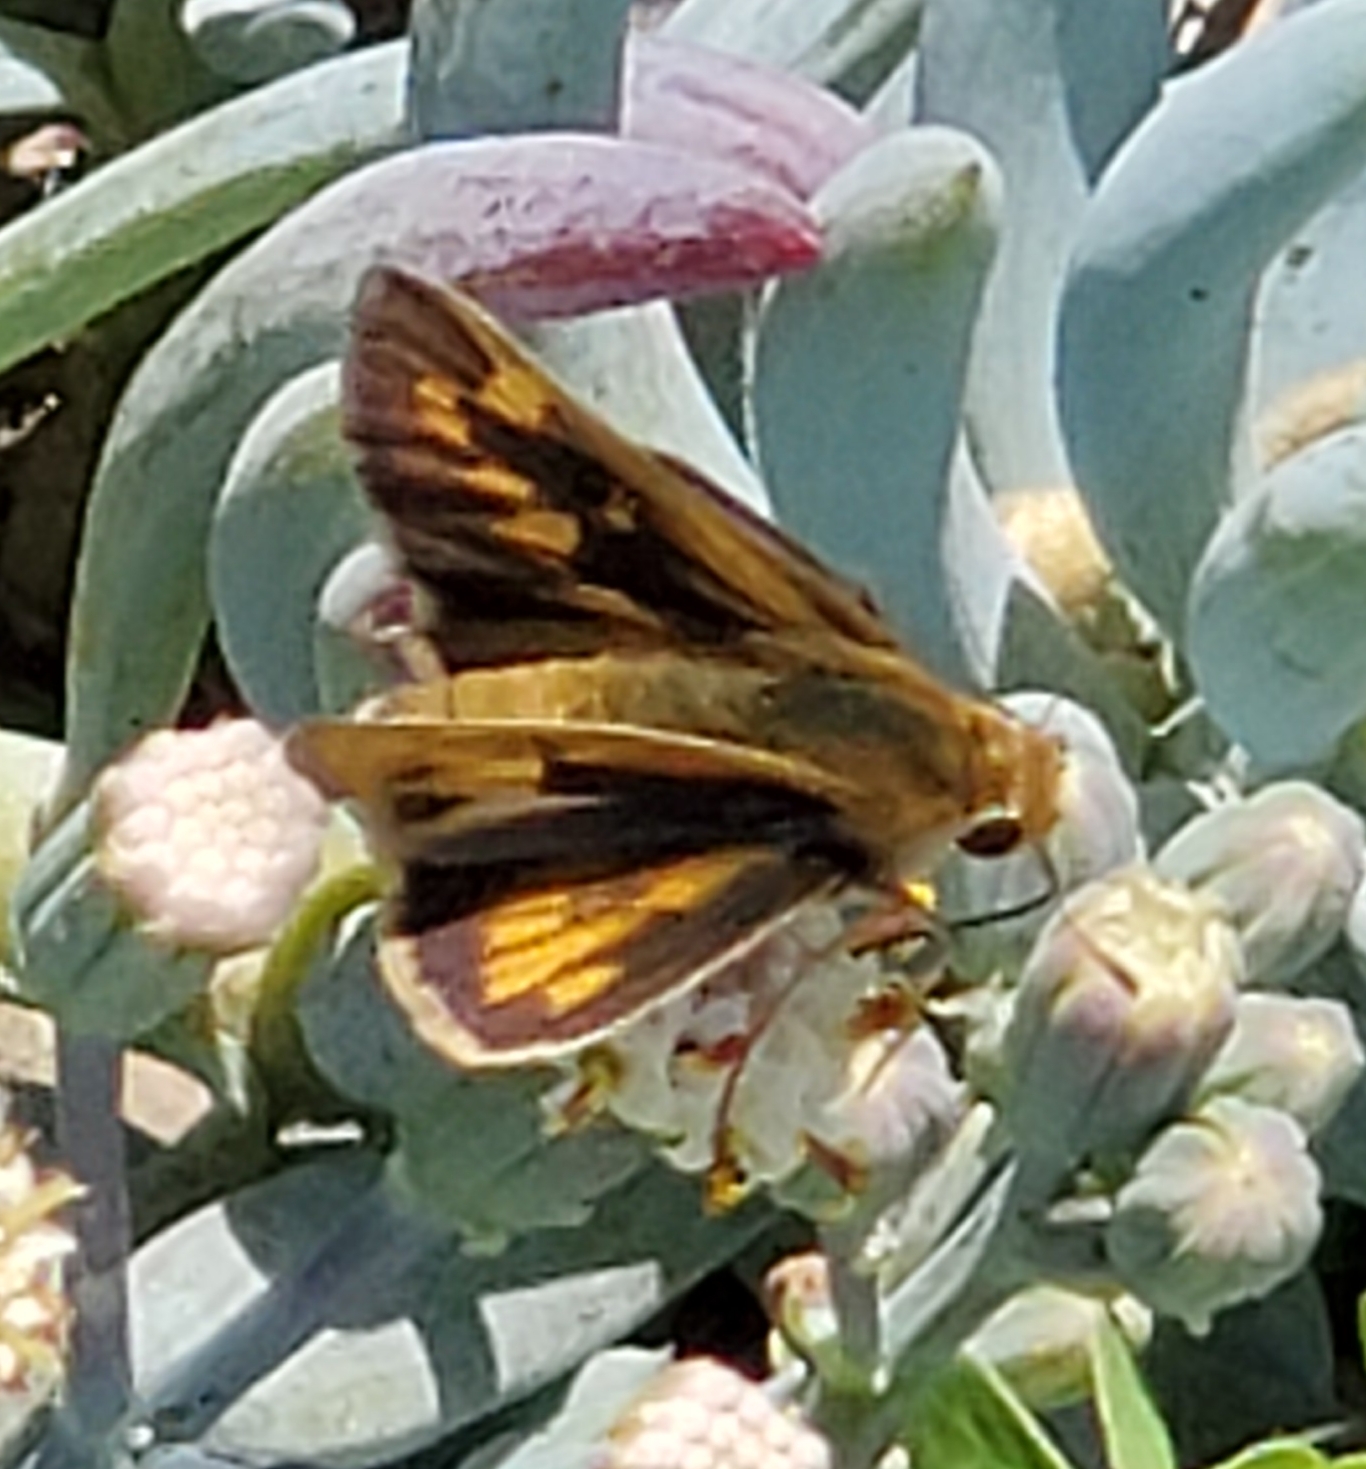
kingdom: Animalia
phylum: Arthropoda
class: Insecta
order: Lepidoptera
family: Hesperiidae
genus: Hylephila
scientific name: Hylephila phyleus
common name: Fiery skipper
